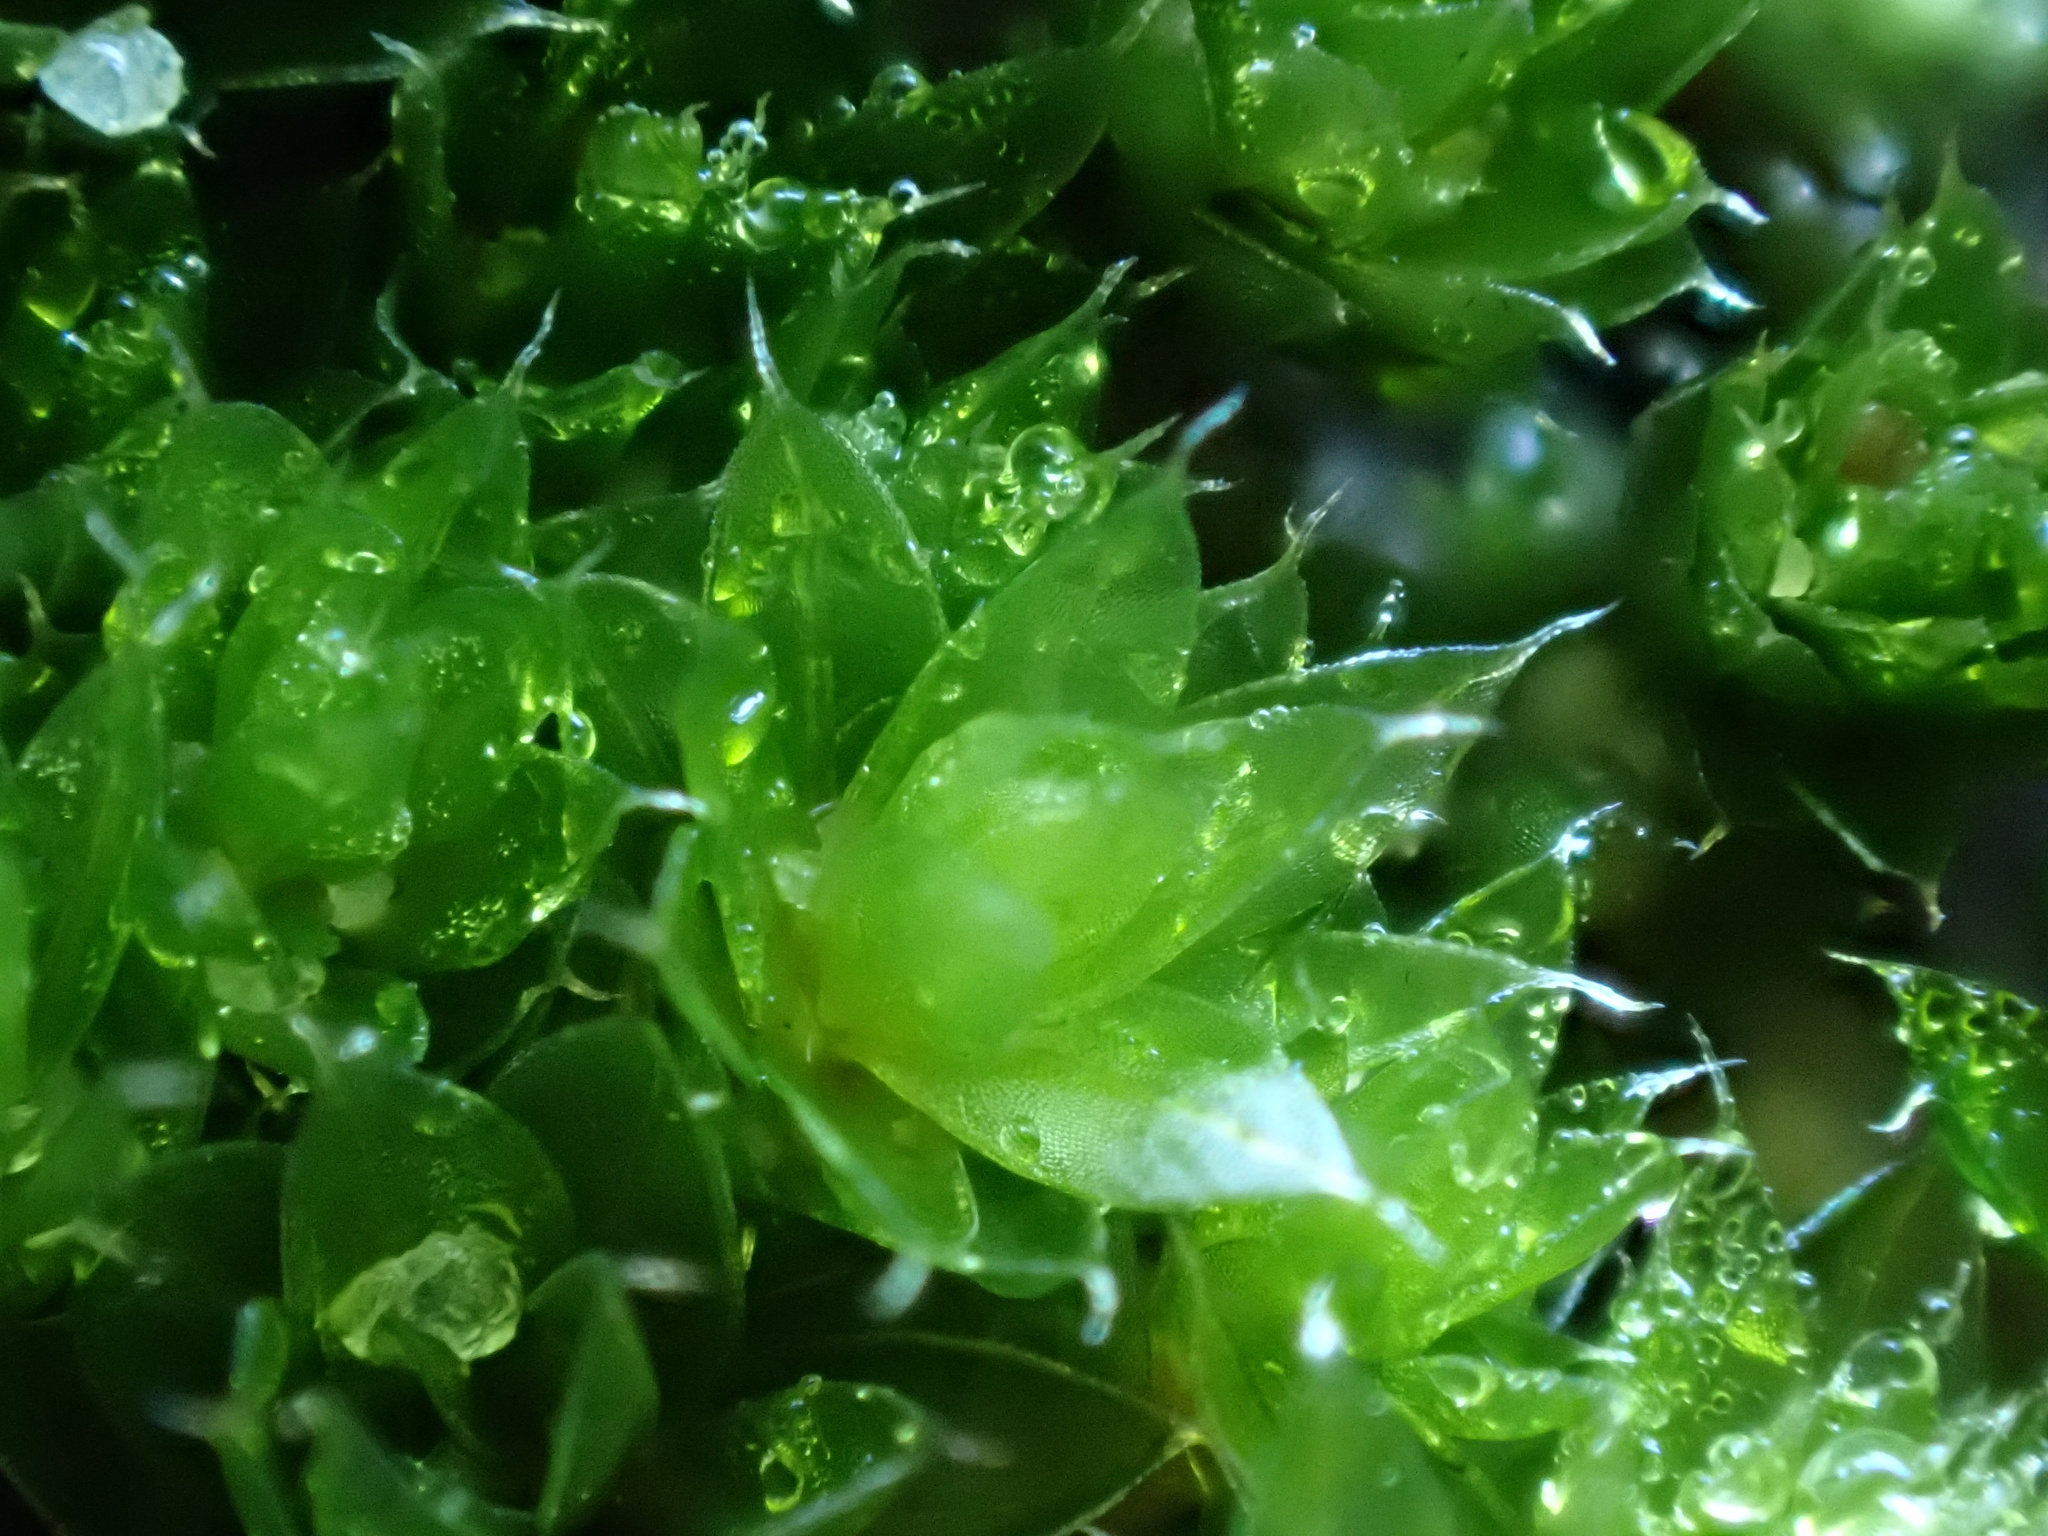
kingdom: Plantae
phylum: Bryophyta
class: Bryopsida
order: Bryales
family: Bryaceae
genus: Rosulabryum
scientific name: Rosulabryum capillare
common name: Capillary thread-moss
